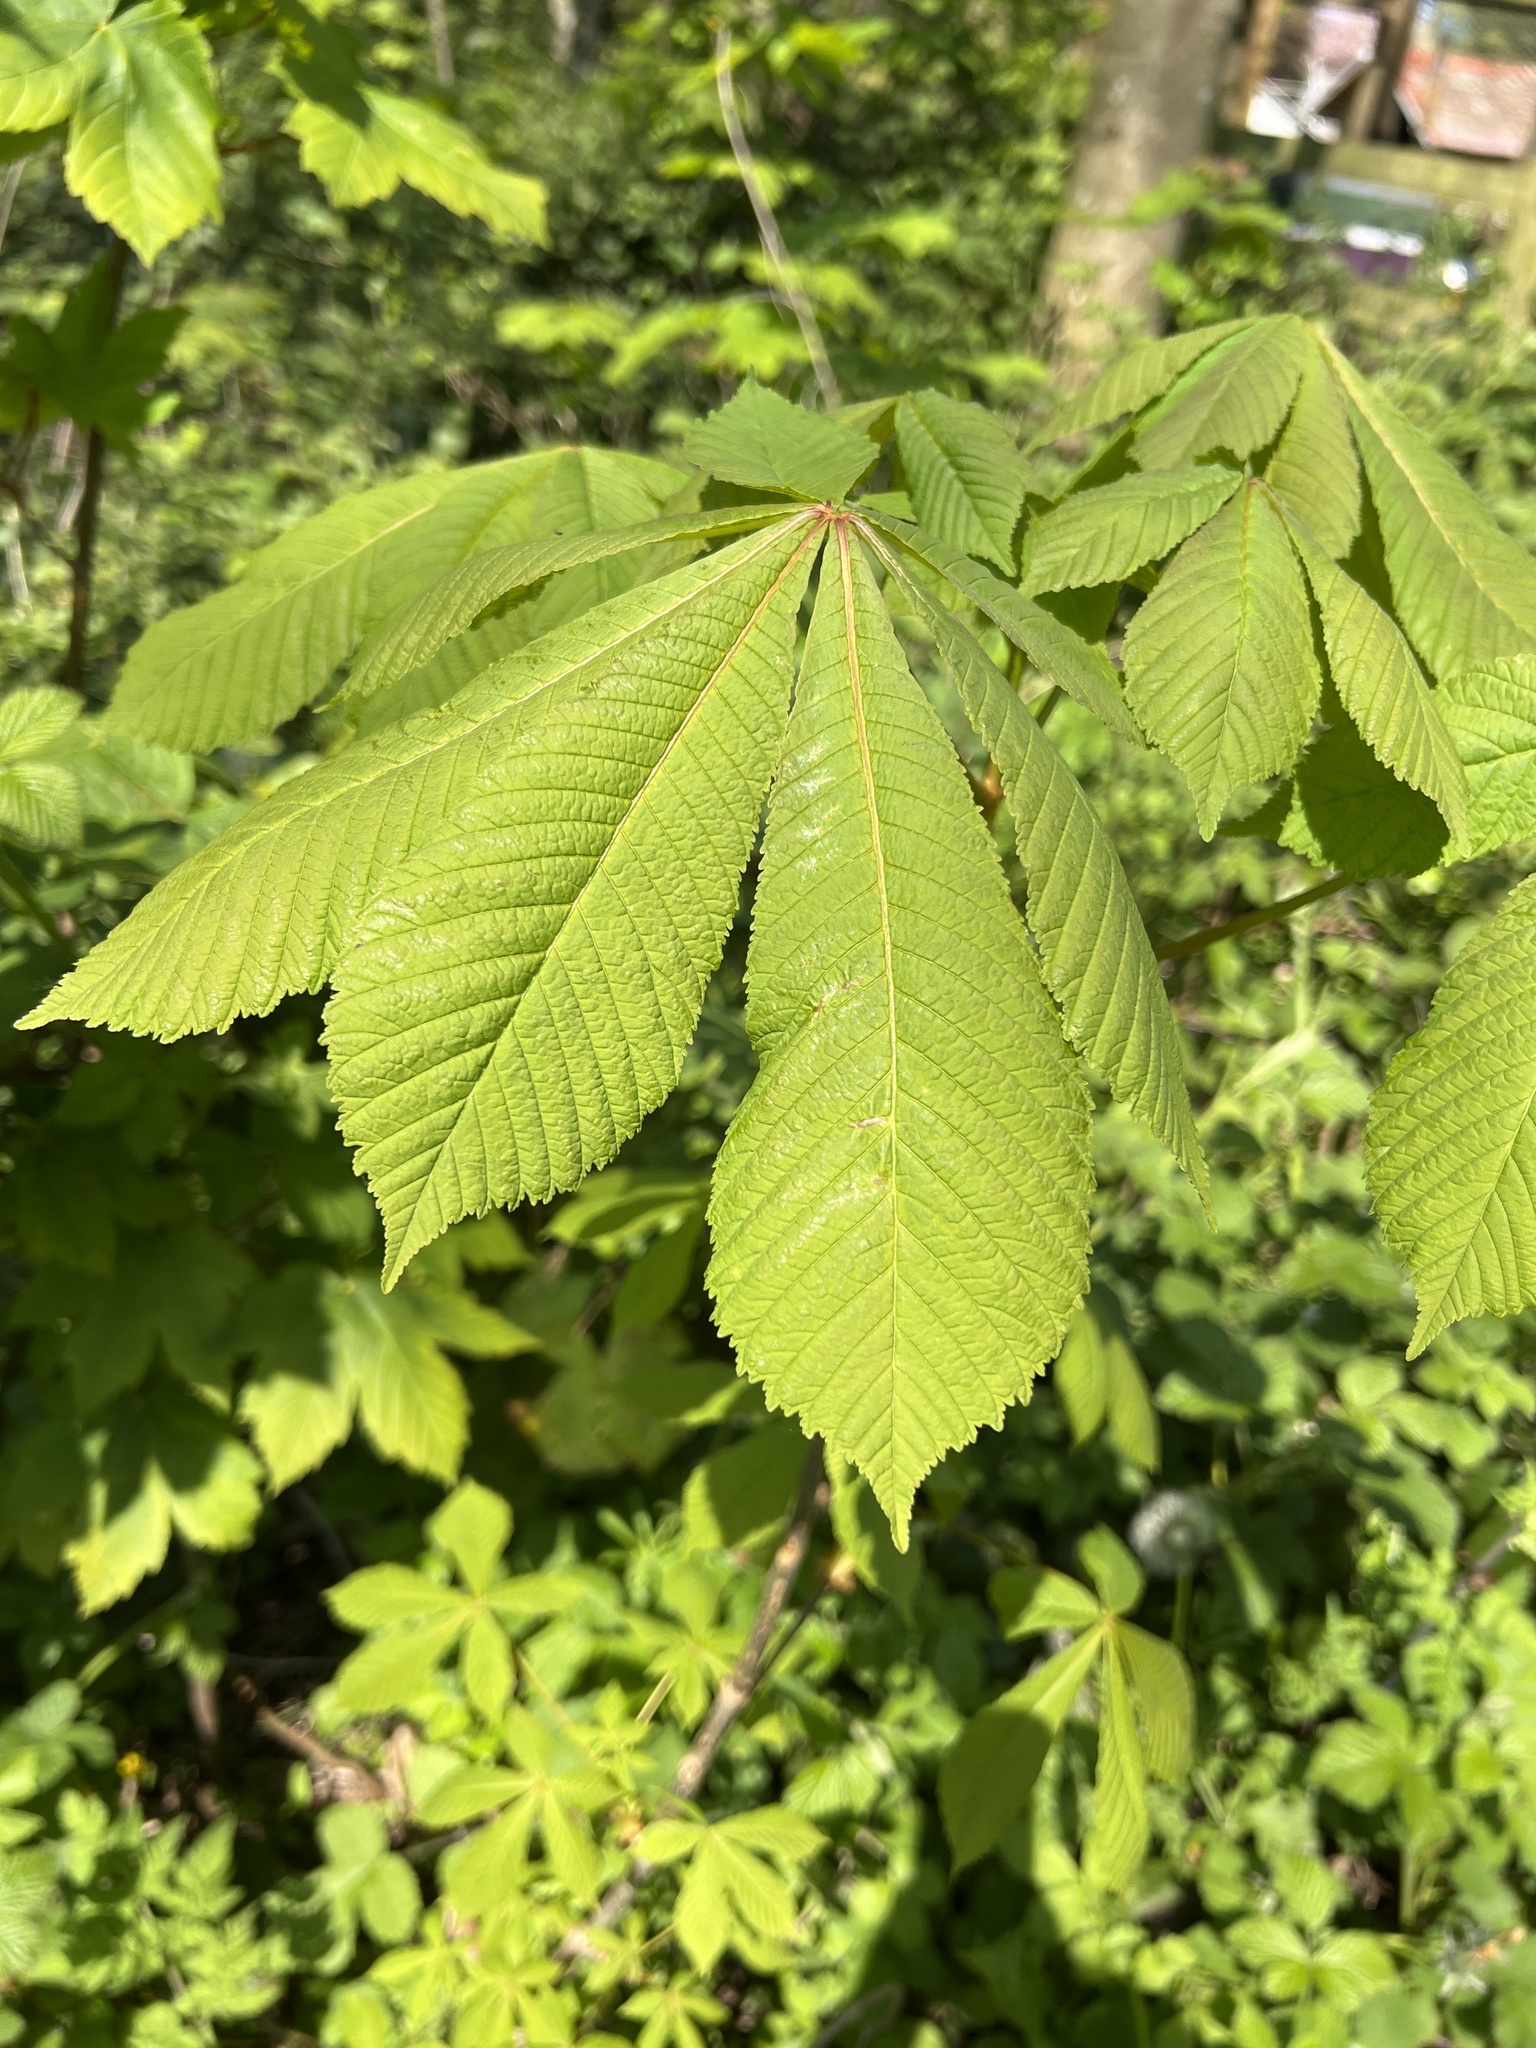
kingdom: Plantae
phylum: Tracheophyta
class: Magnoliopsida
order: Sapindales
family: Sapindaceae
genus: Aesculus
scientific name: Aesculus hippocastanum
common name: Horse-chestnut
